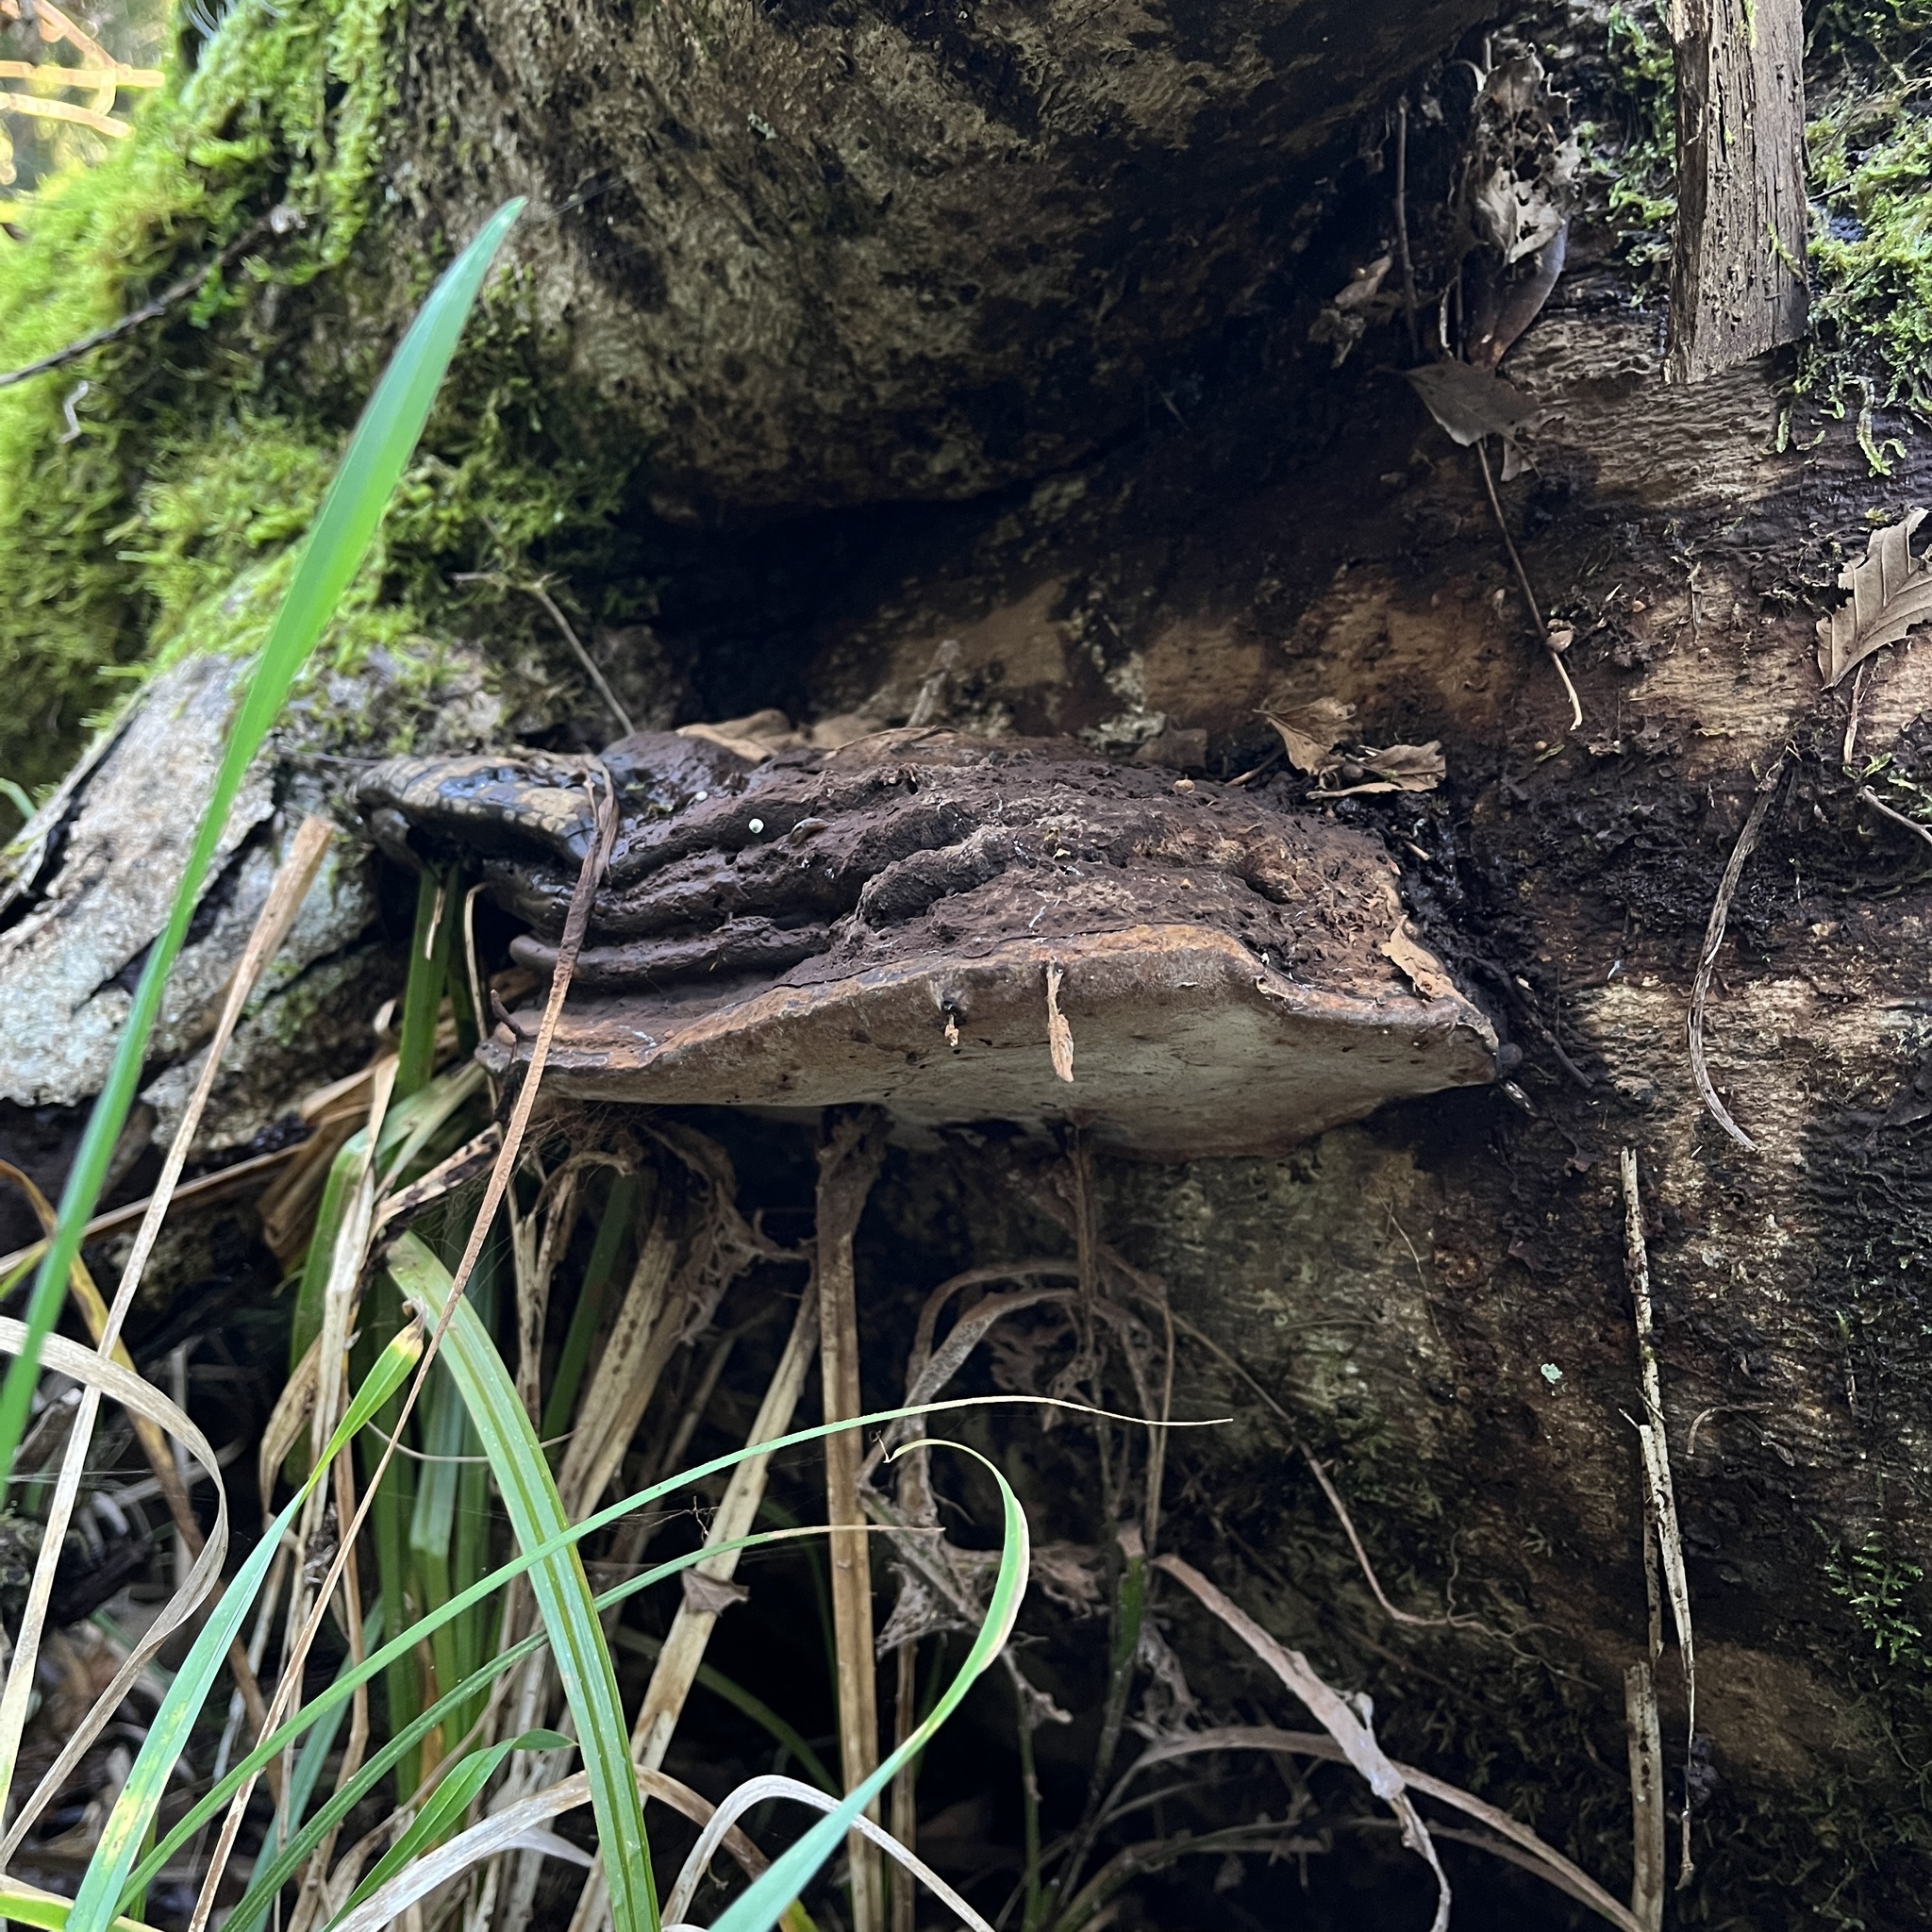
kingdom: Fungi
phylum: Basidiomycota
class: Agaricomycetes
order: Polyporales
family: Polyporaceae
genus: Ganoderma
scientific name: Ganoderma australe
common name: Southern bracket
